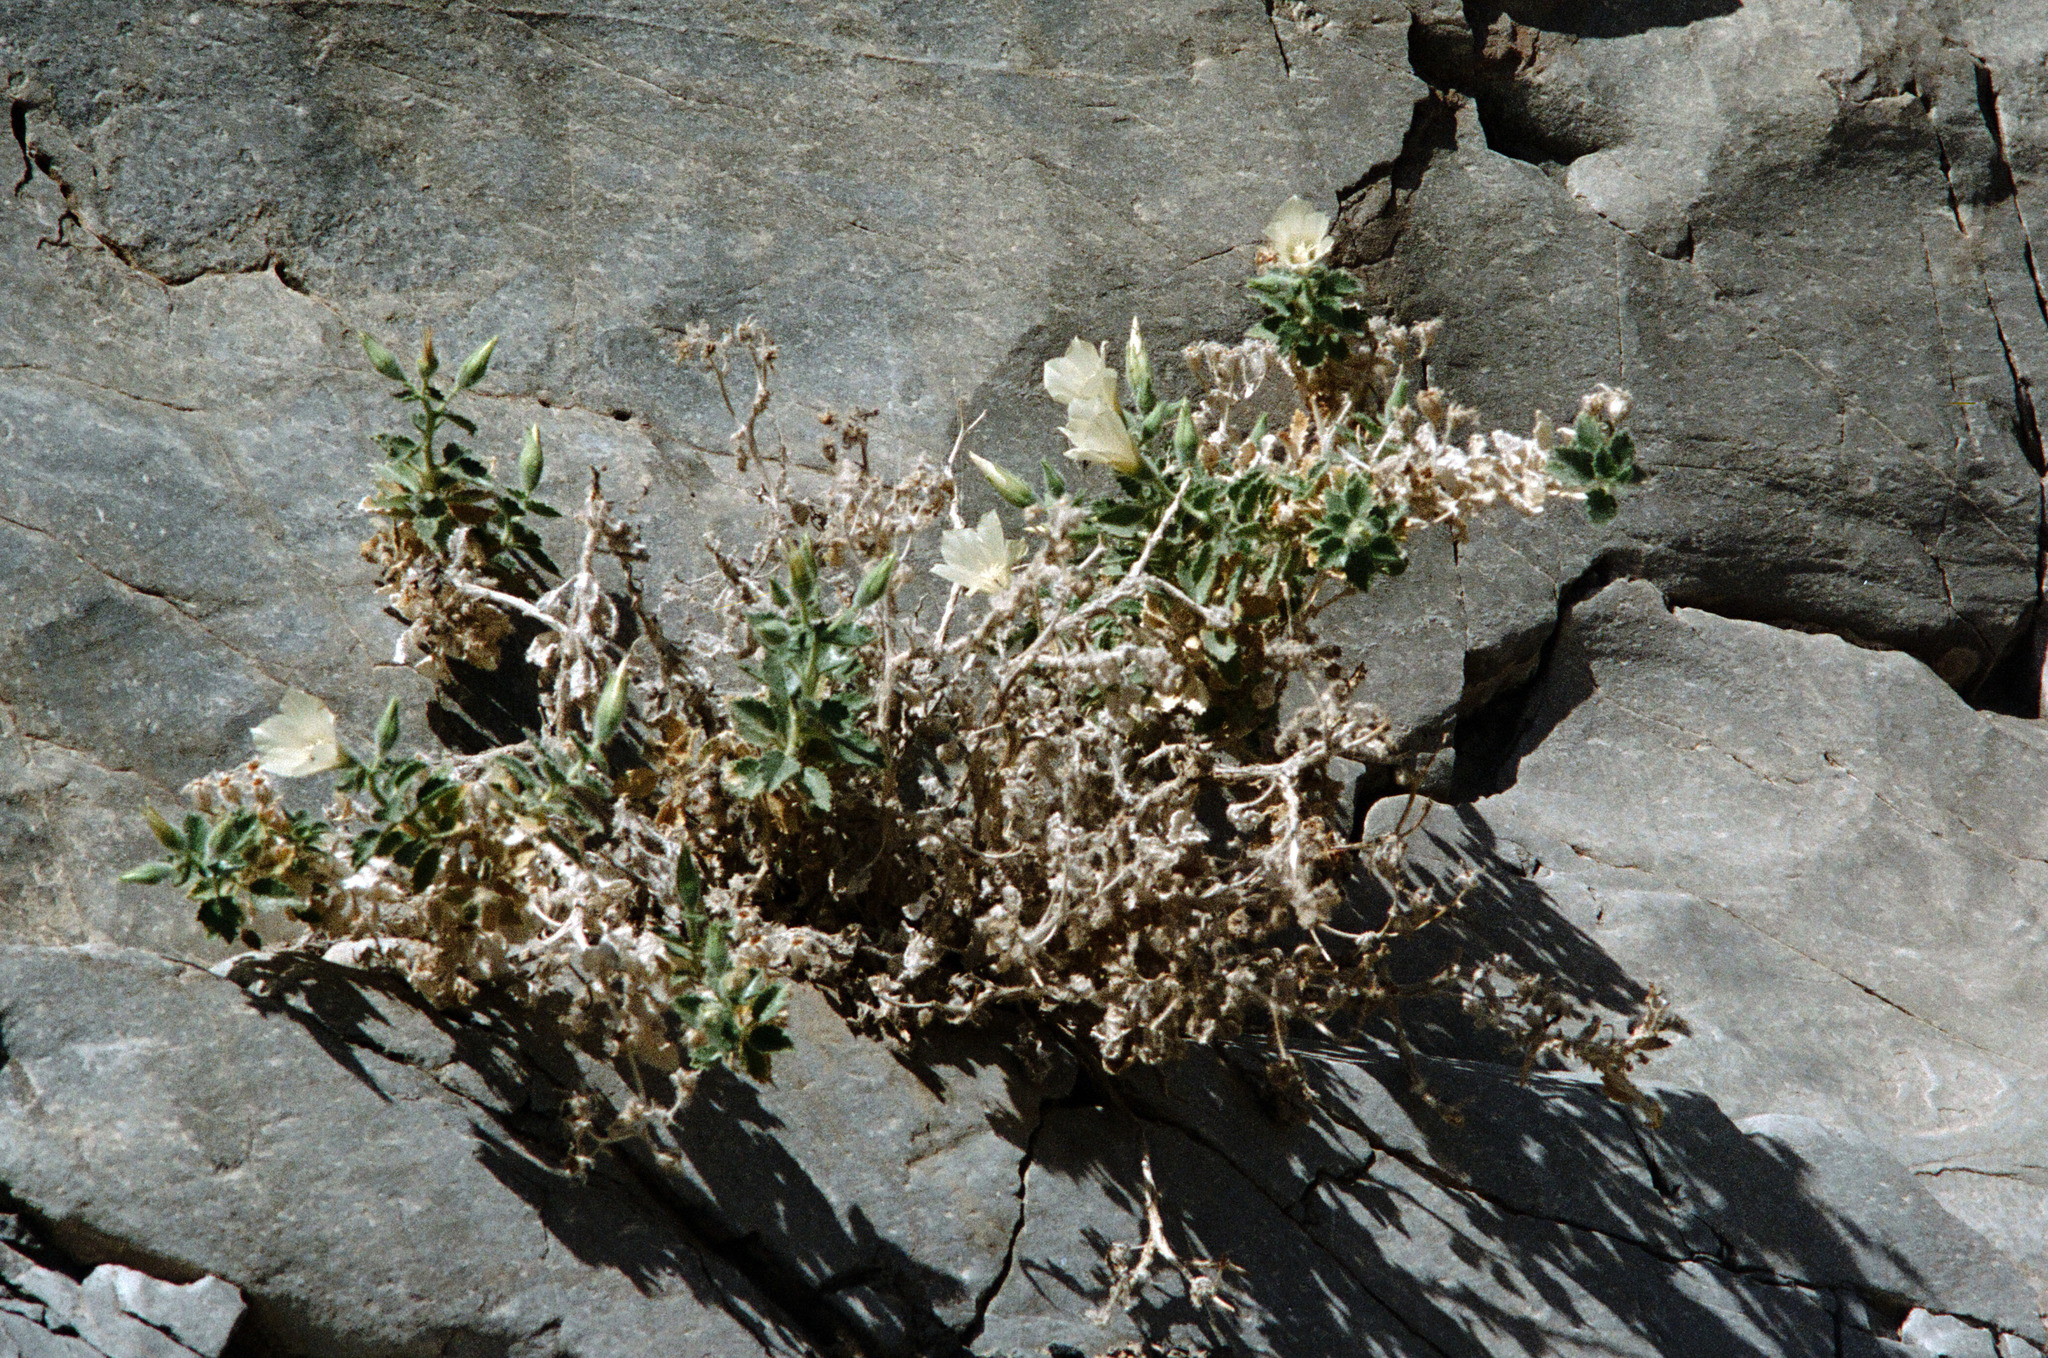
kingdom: Plantae
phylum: Tracheophyta
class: Magnoliopsida
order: Cornales
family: Loasaceae
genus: Eucnide
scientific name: Eucnide urens
